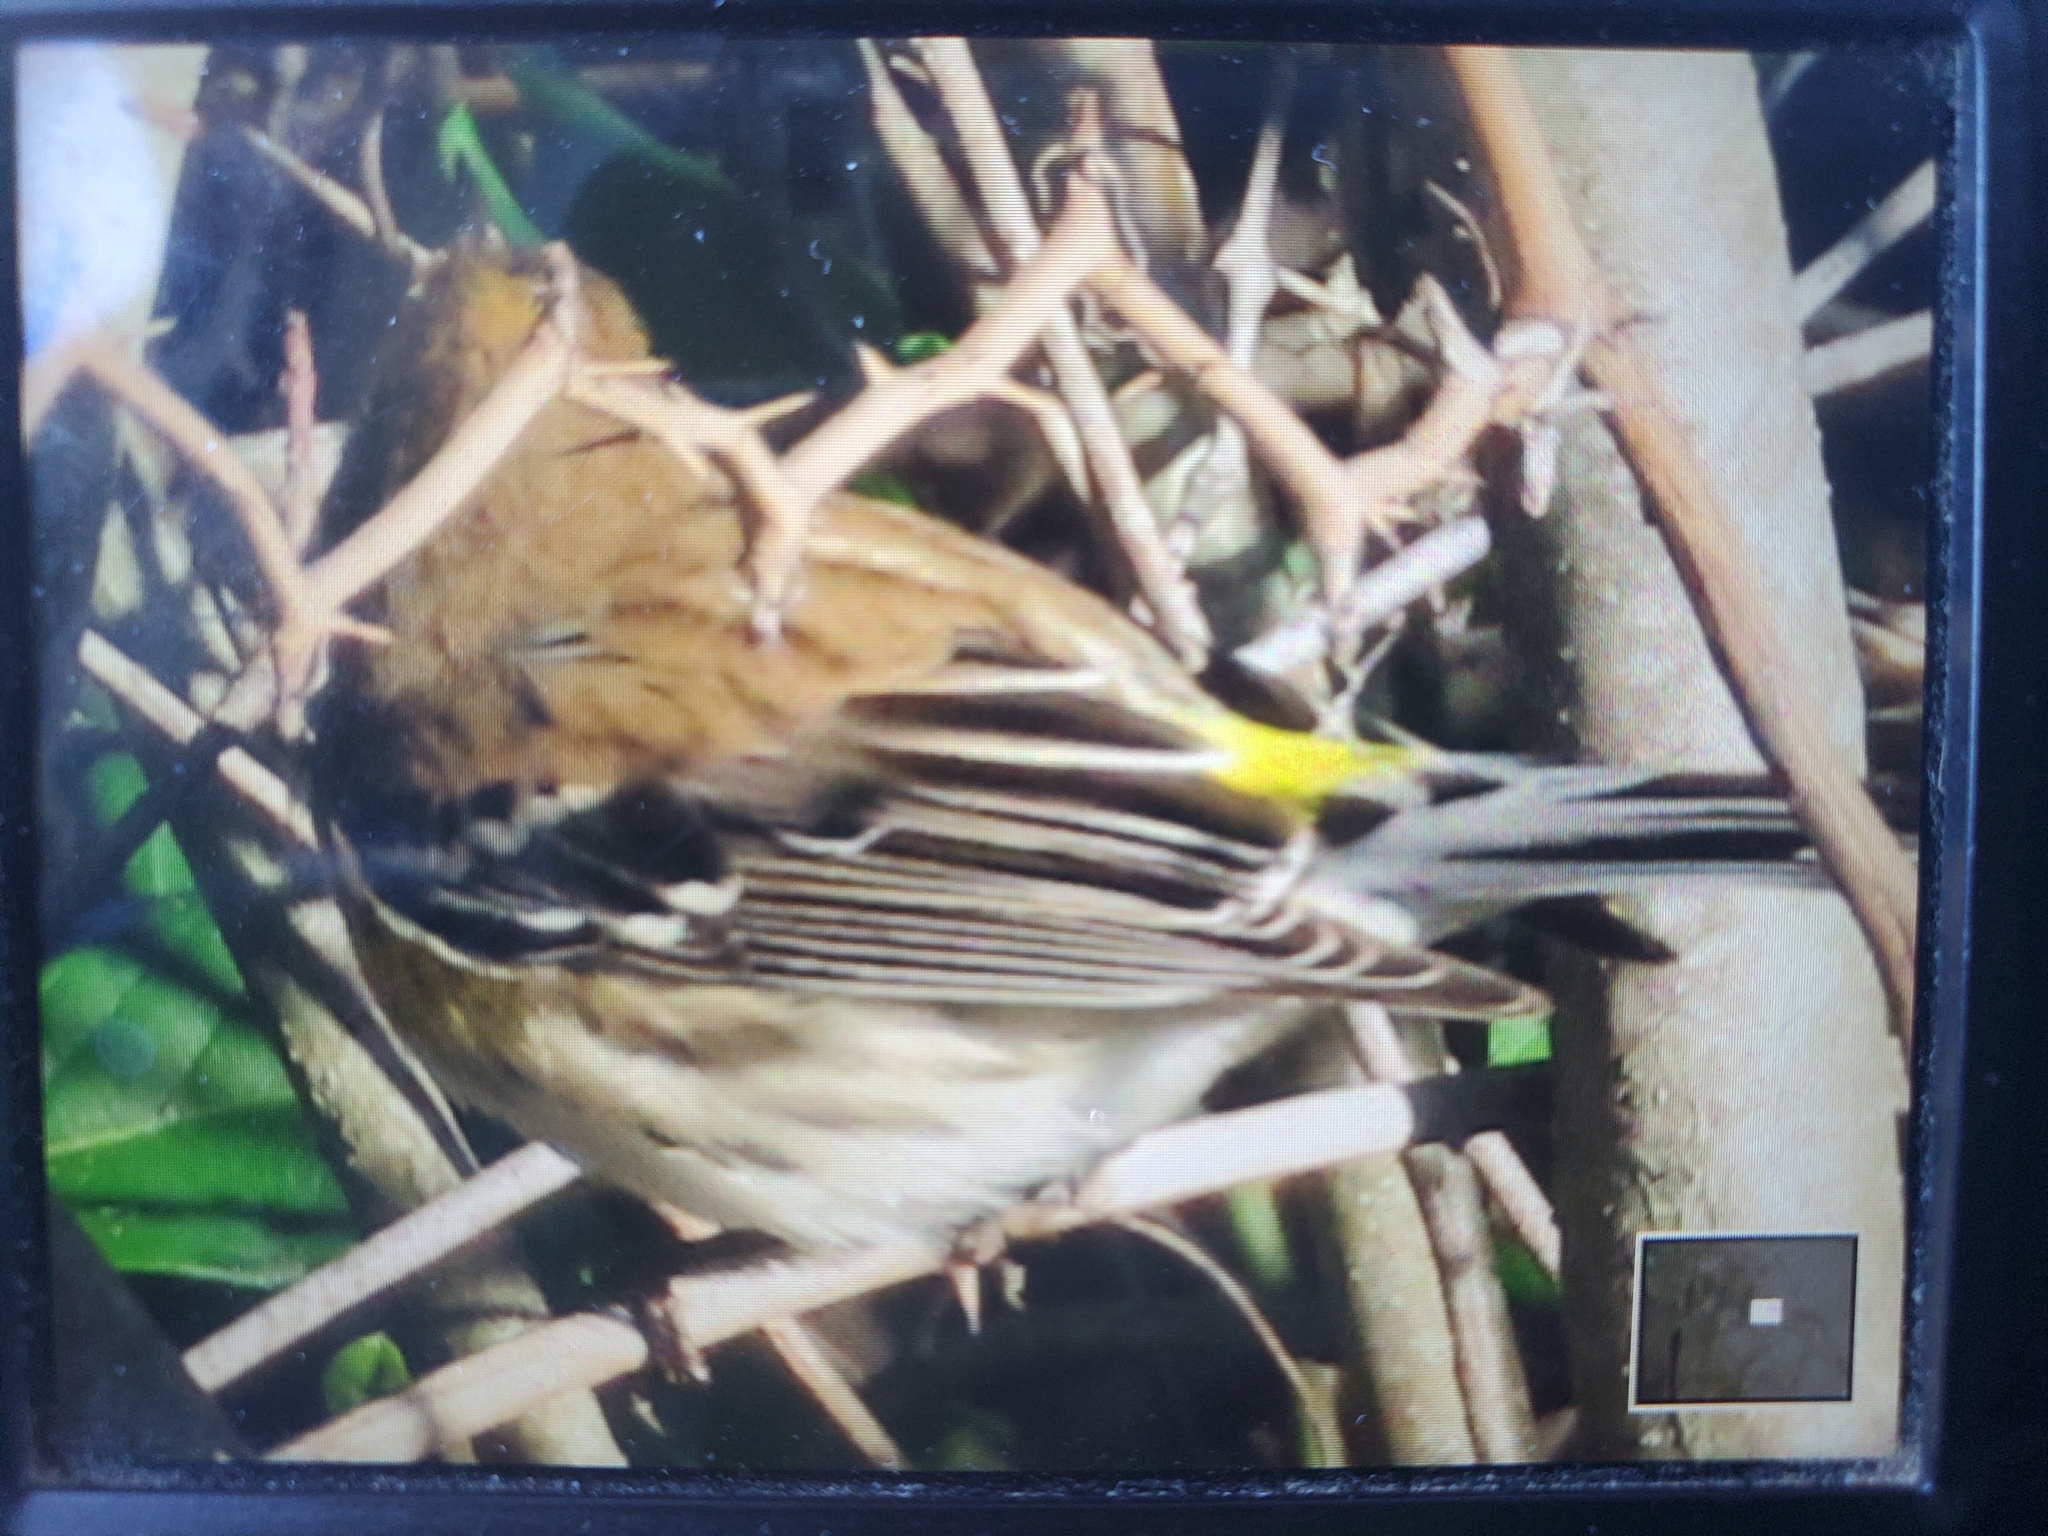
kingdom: Animalia
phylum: Chordata
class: Aves
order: Passeriformes
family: Parulidae
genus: Setophaga
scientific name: Setophaga coronata
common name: Myrtle warbler
